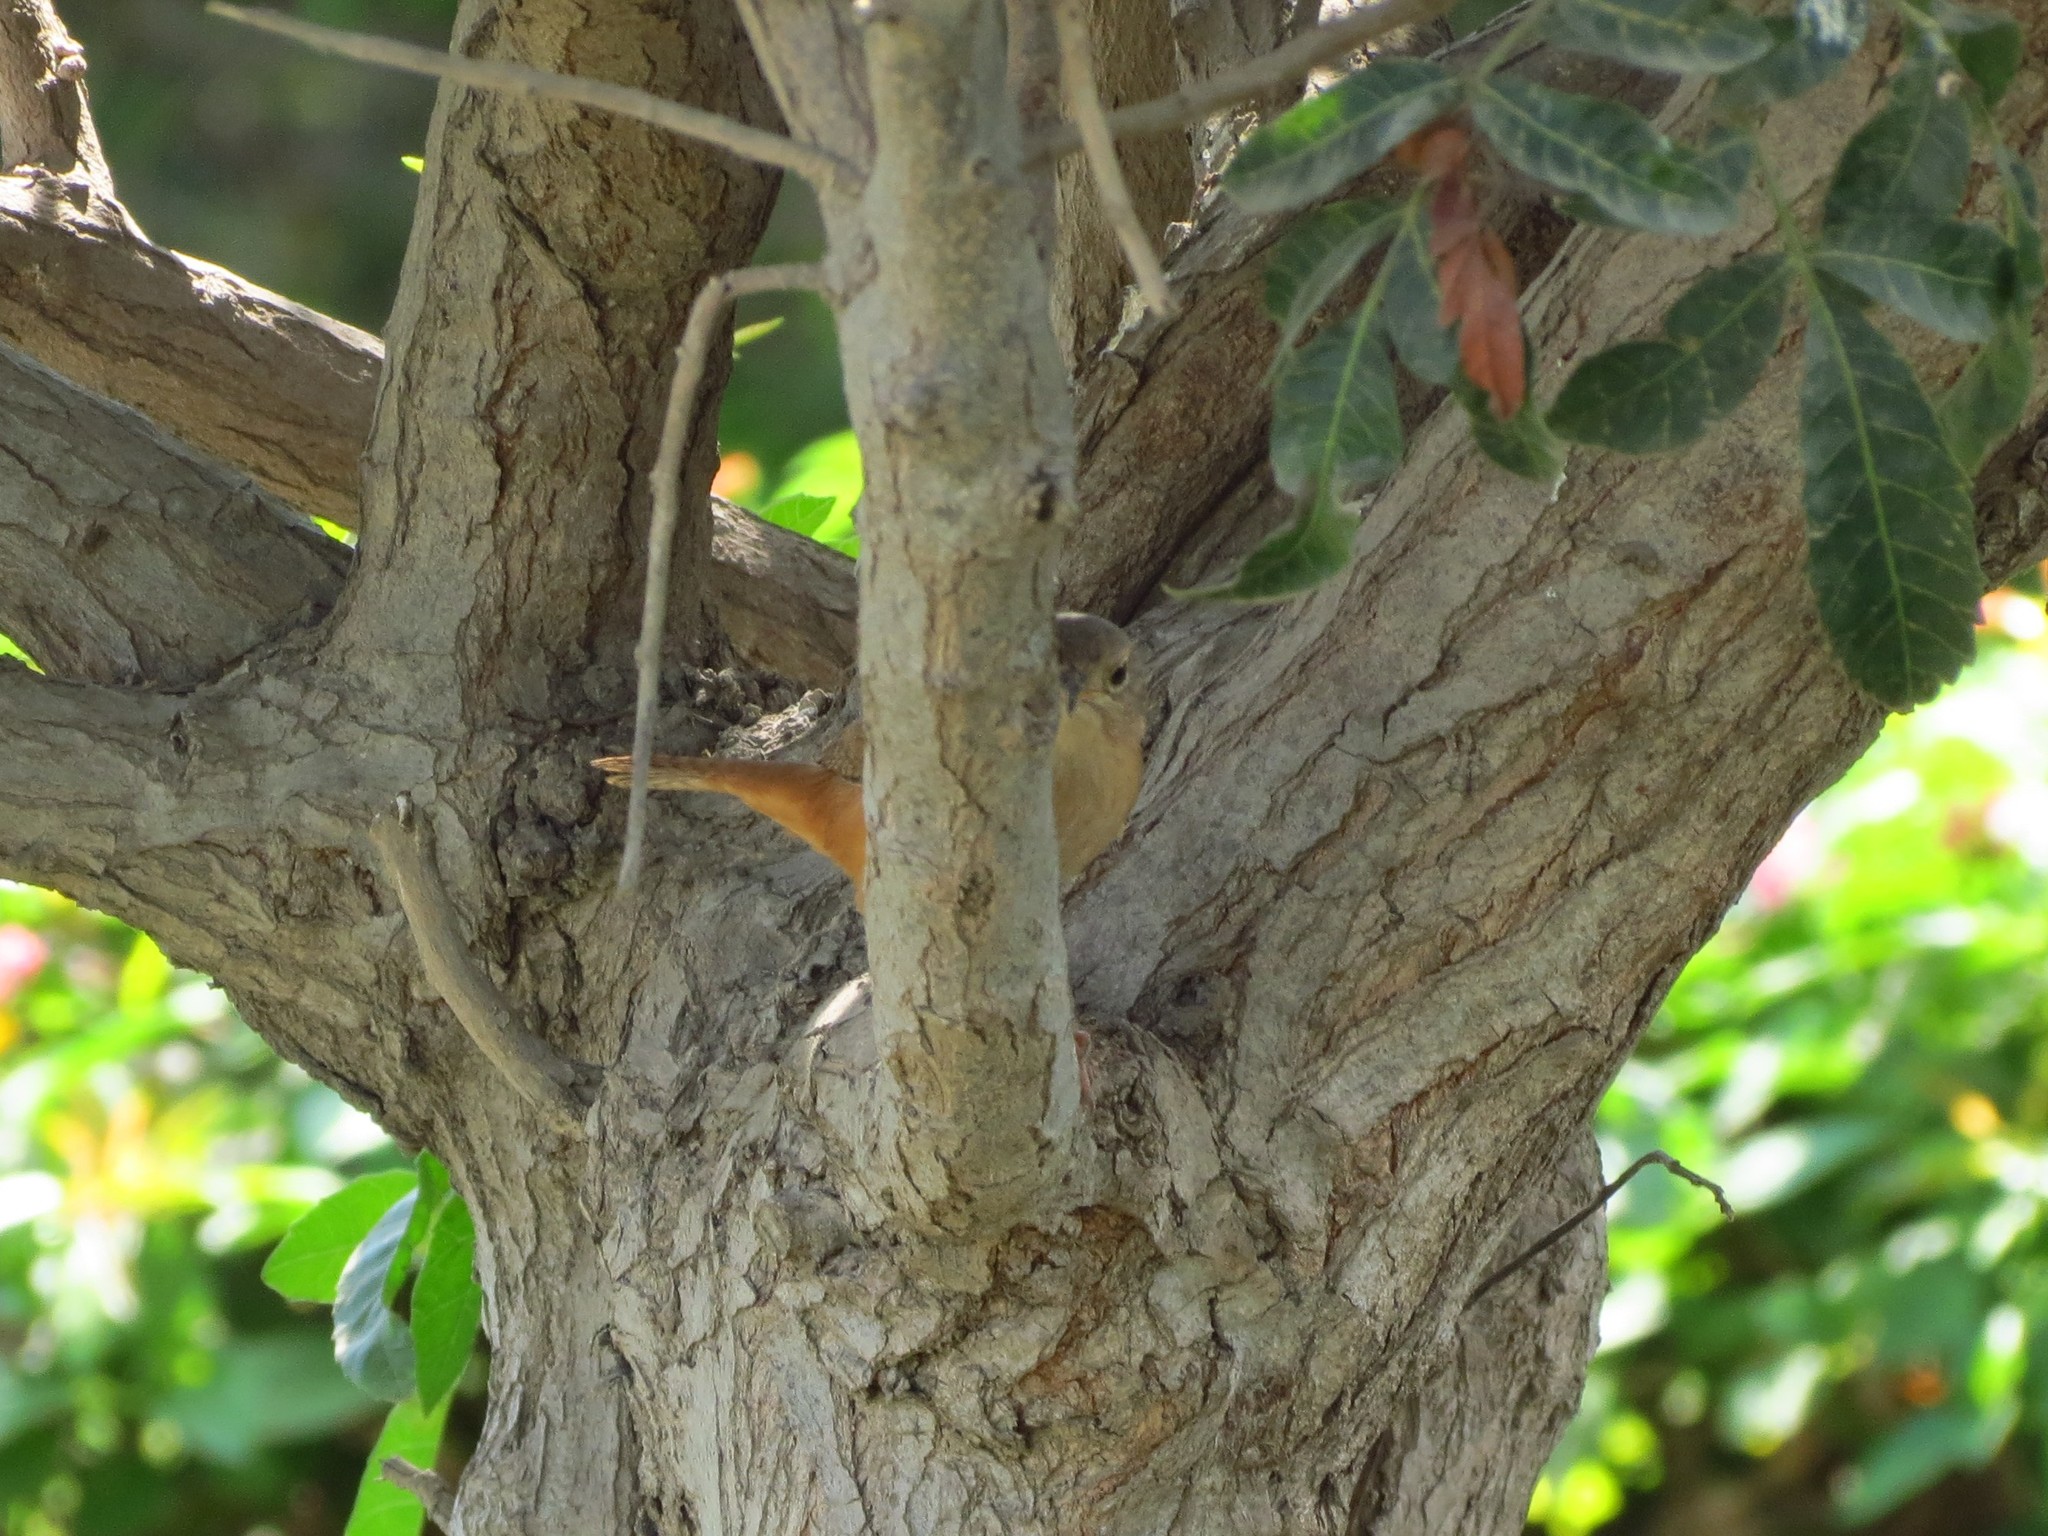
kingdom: Animalia
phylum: Chordata
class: Aves
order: Passeriformes
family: Troglodytidae
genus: Troglodytes
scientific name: Troglodytes aedon
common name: House wren
